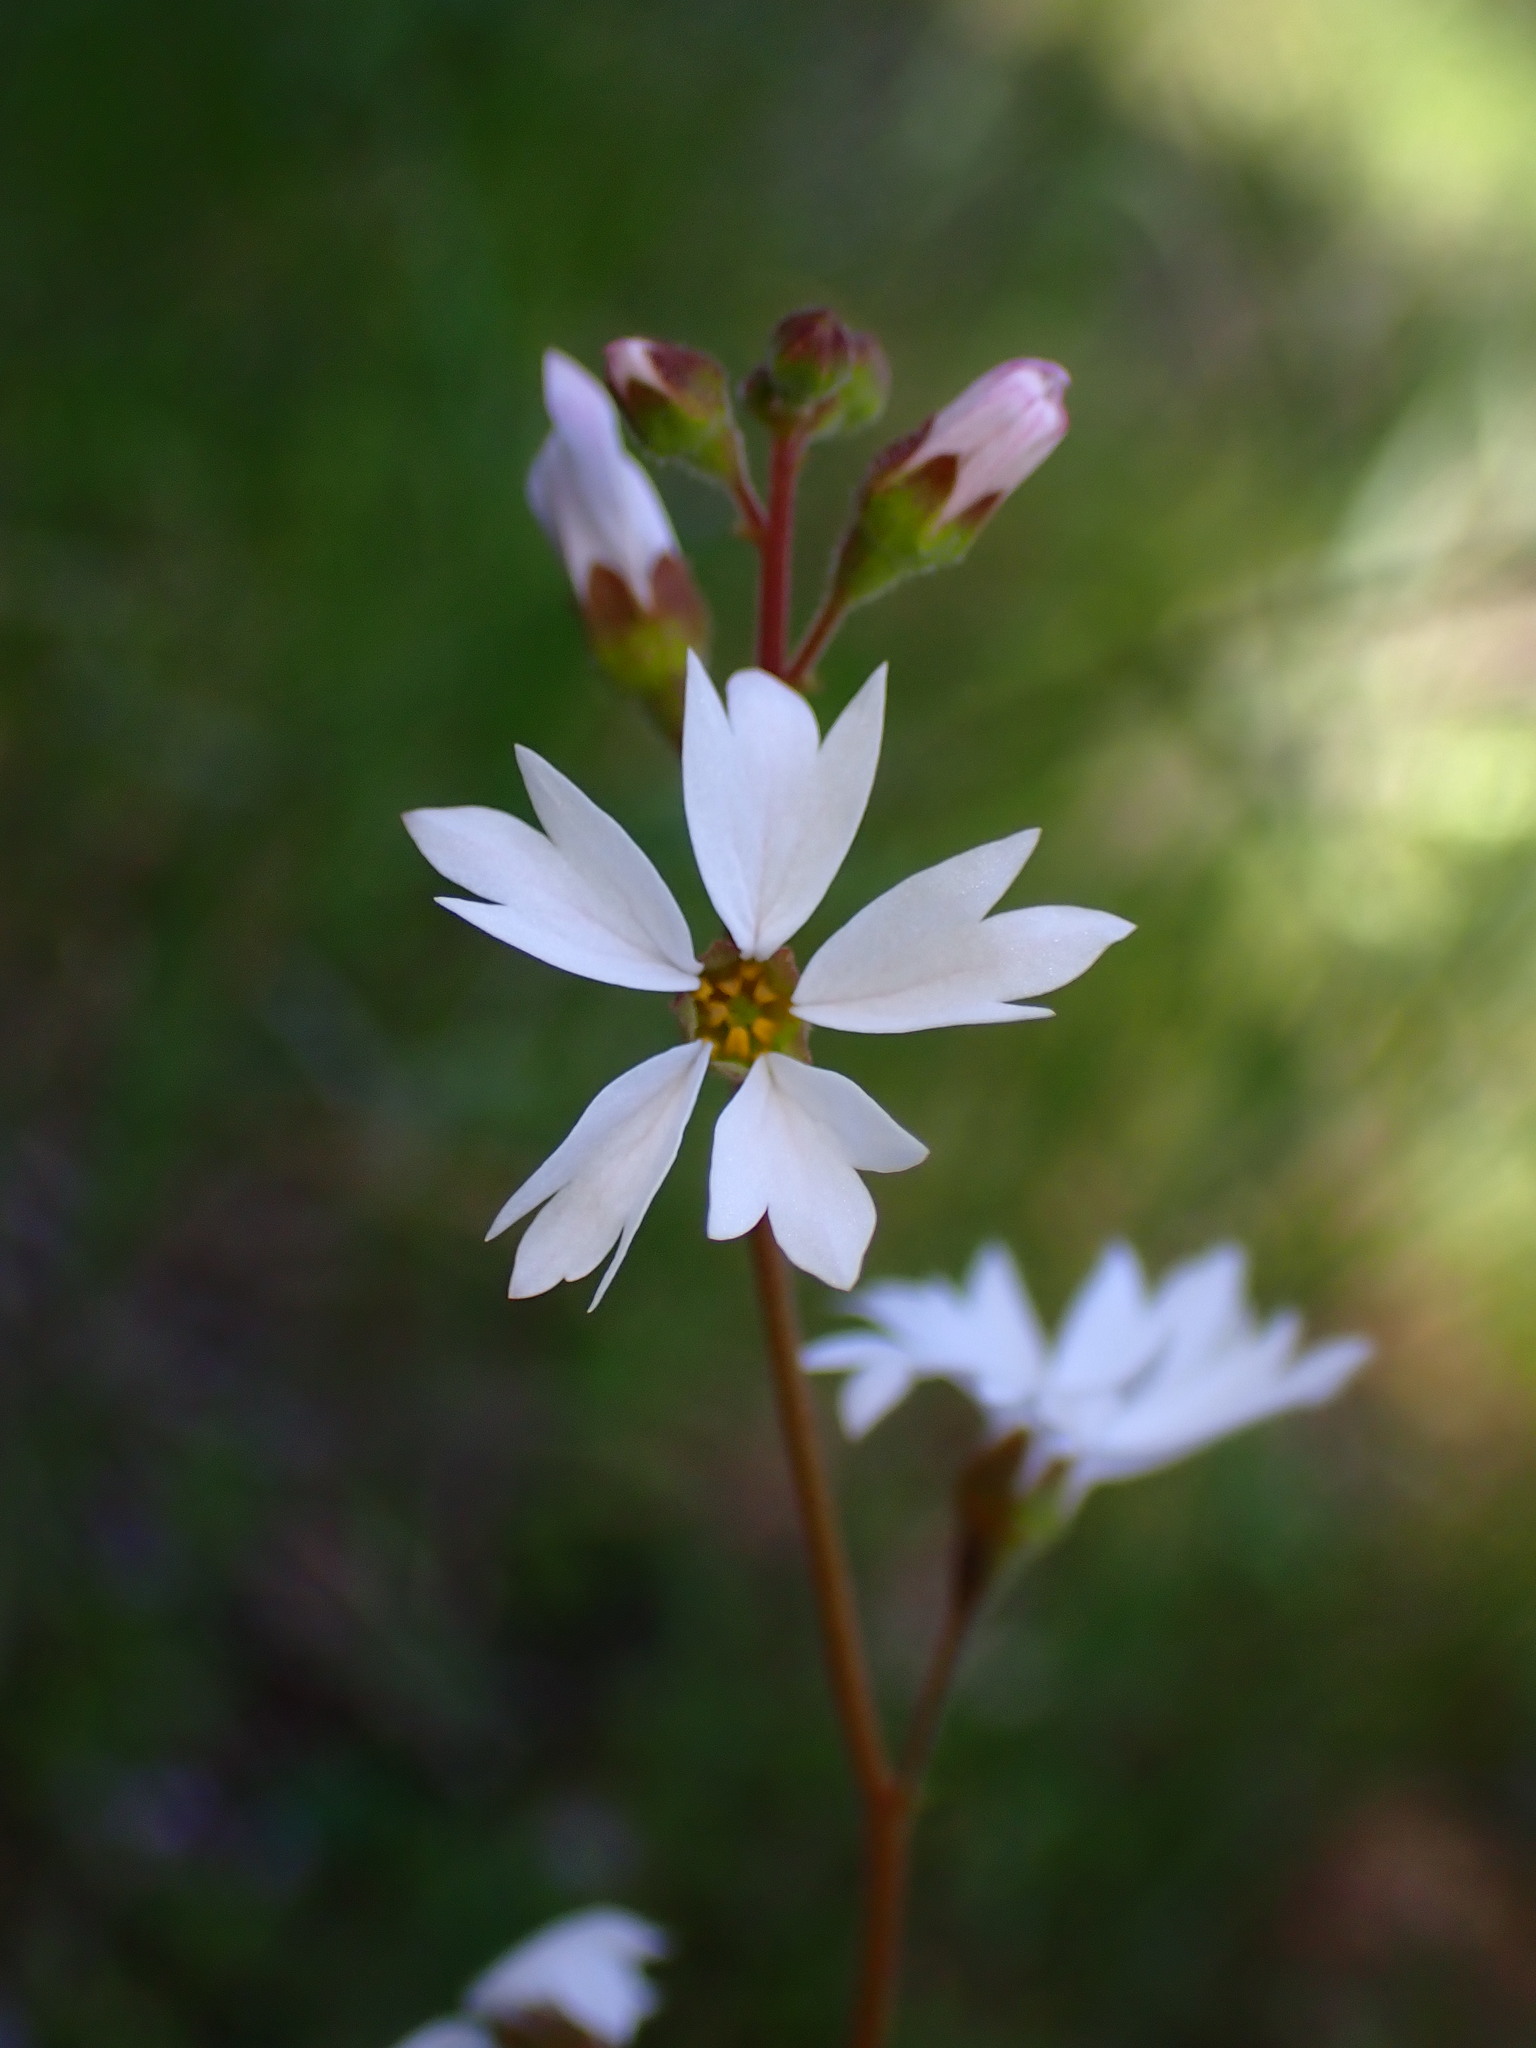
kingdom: Plantae
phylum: Tracheophyta
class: Magnoliopsida
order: Saxifragales
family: Saxifragaceae
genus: Lithophragma
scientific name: Lithophragma affine
